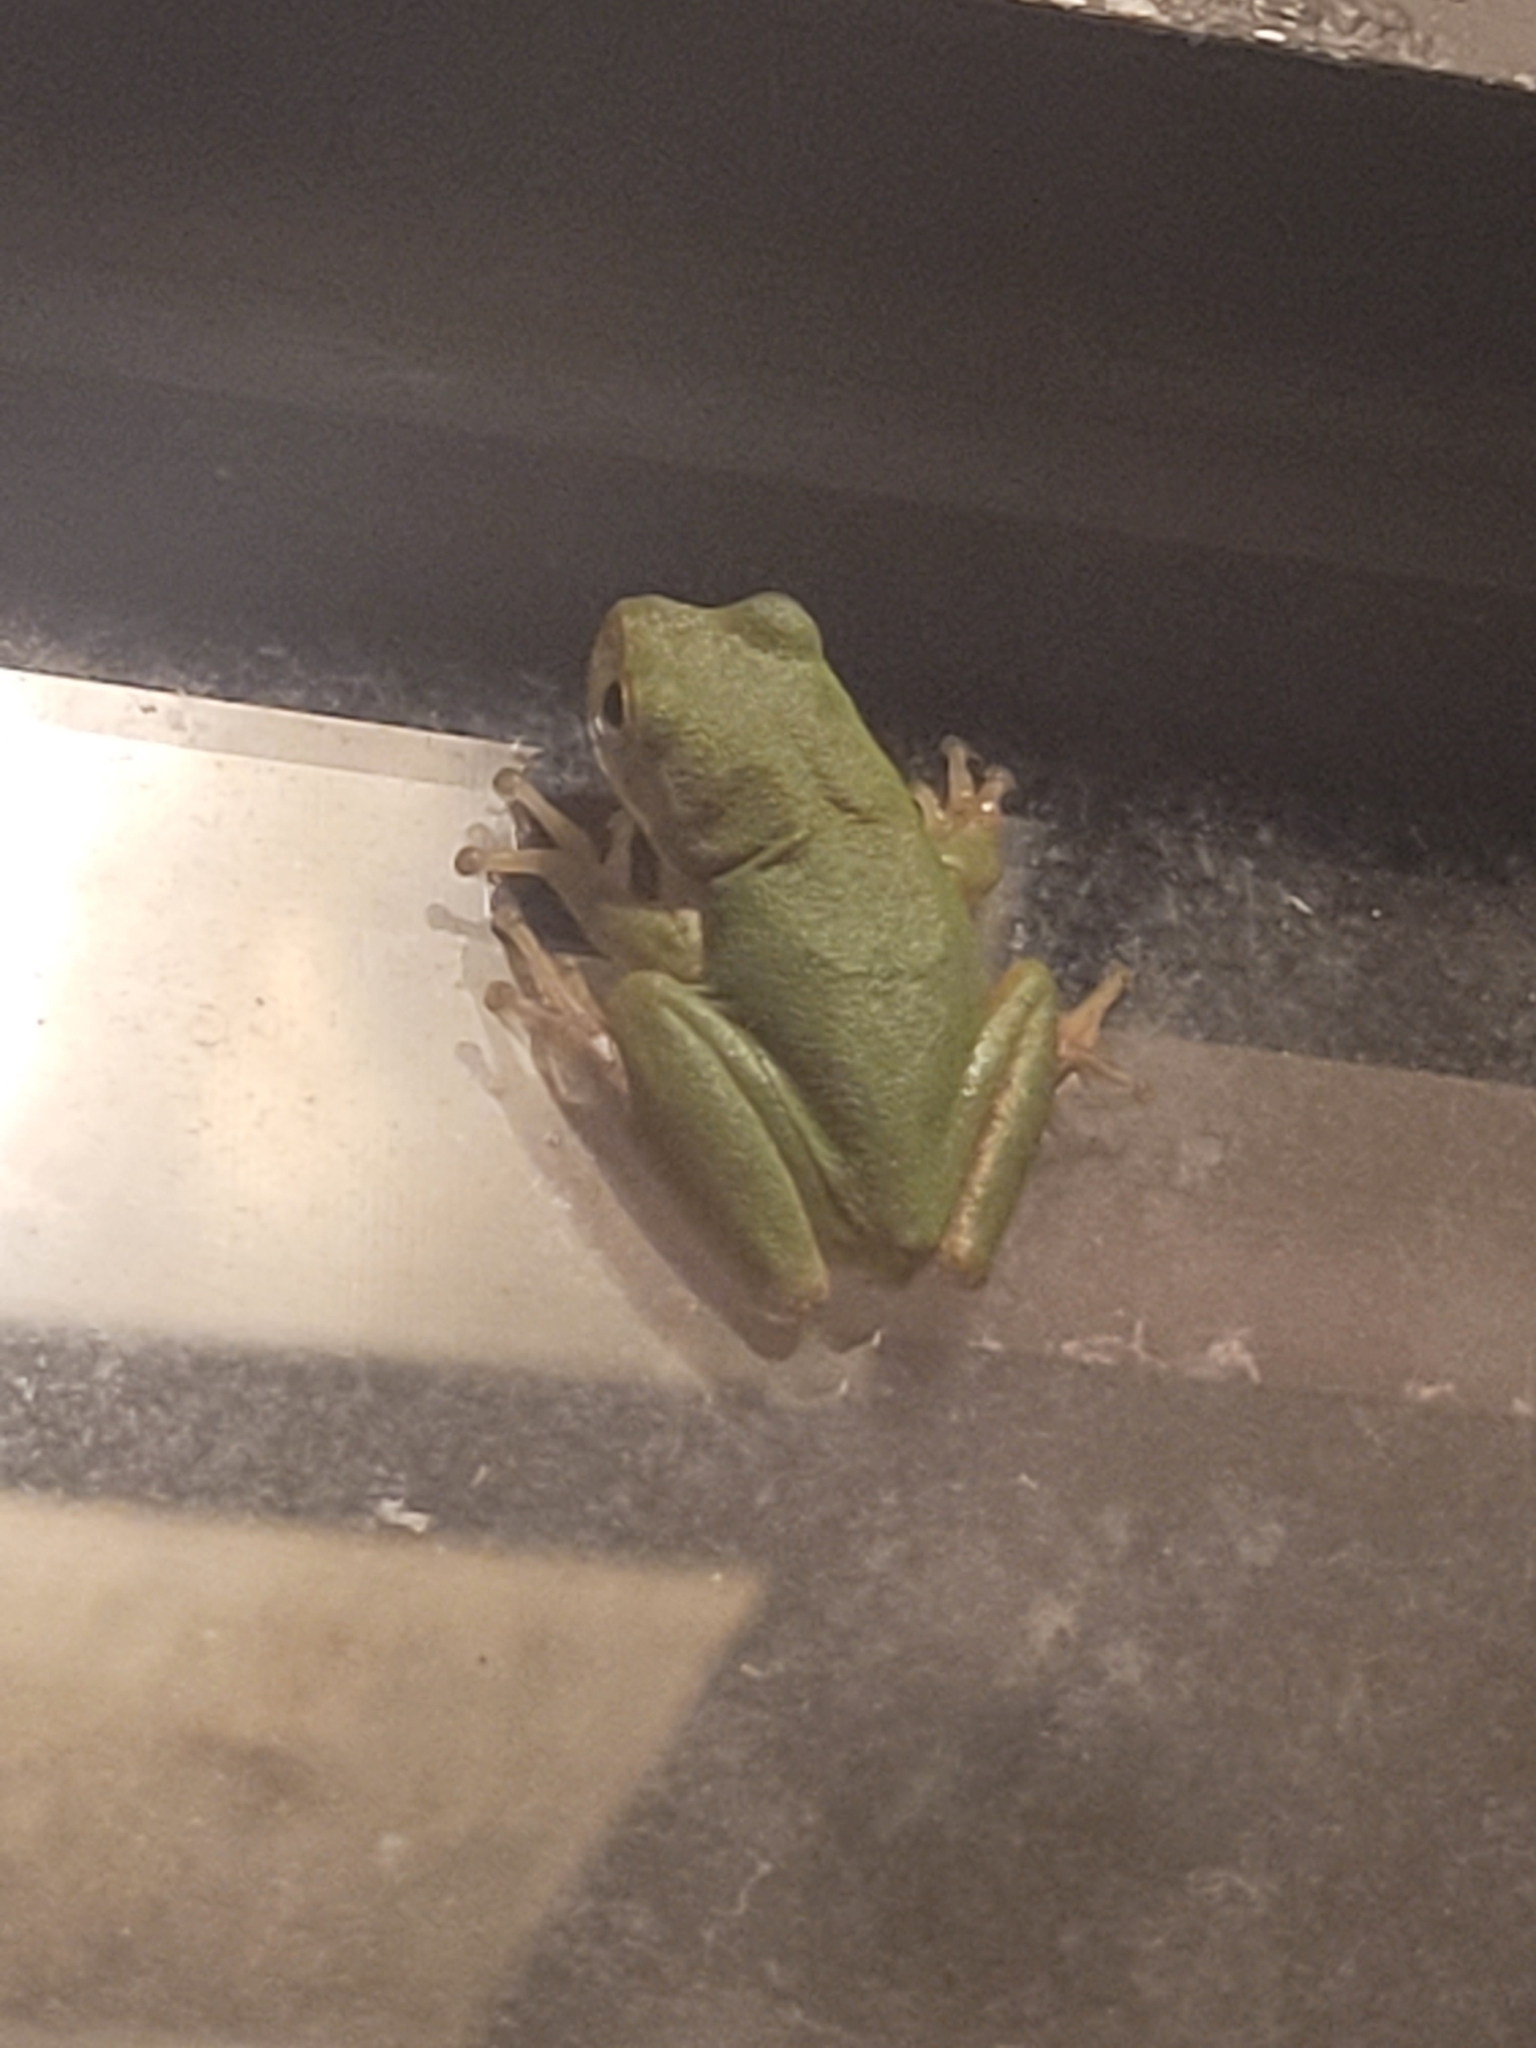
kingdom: Animalia
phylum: Chordata
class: Amphibia
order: Anura
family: Hylidae
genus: Dryophytes
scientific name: Dryophytes squirellus
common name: Squirrel treefrog
